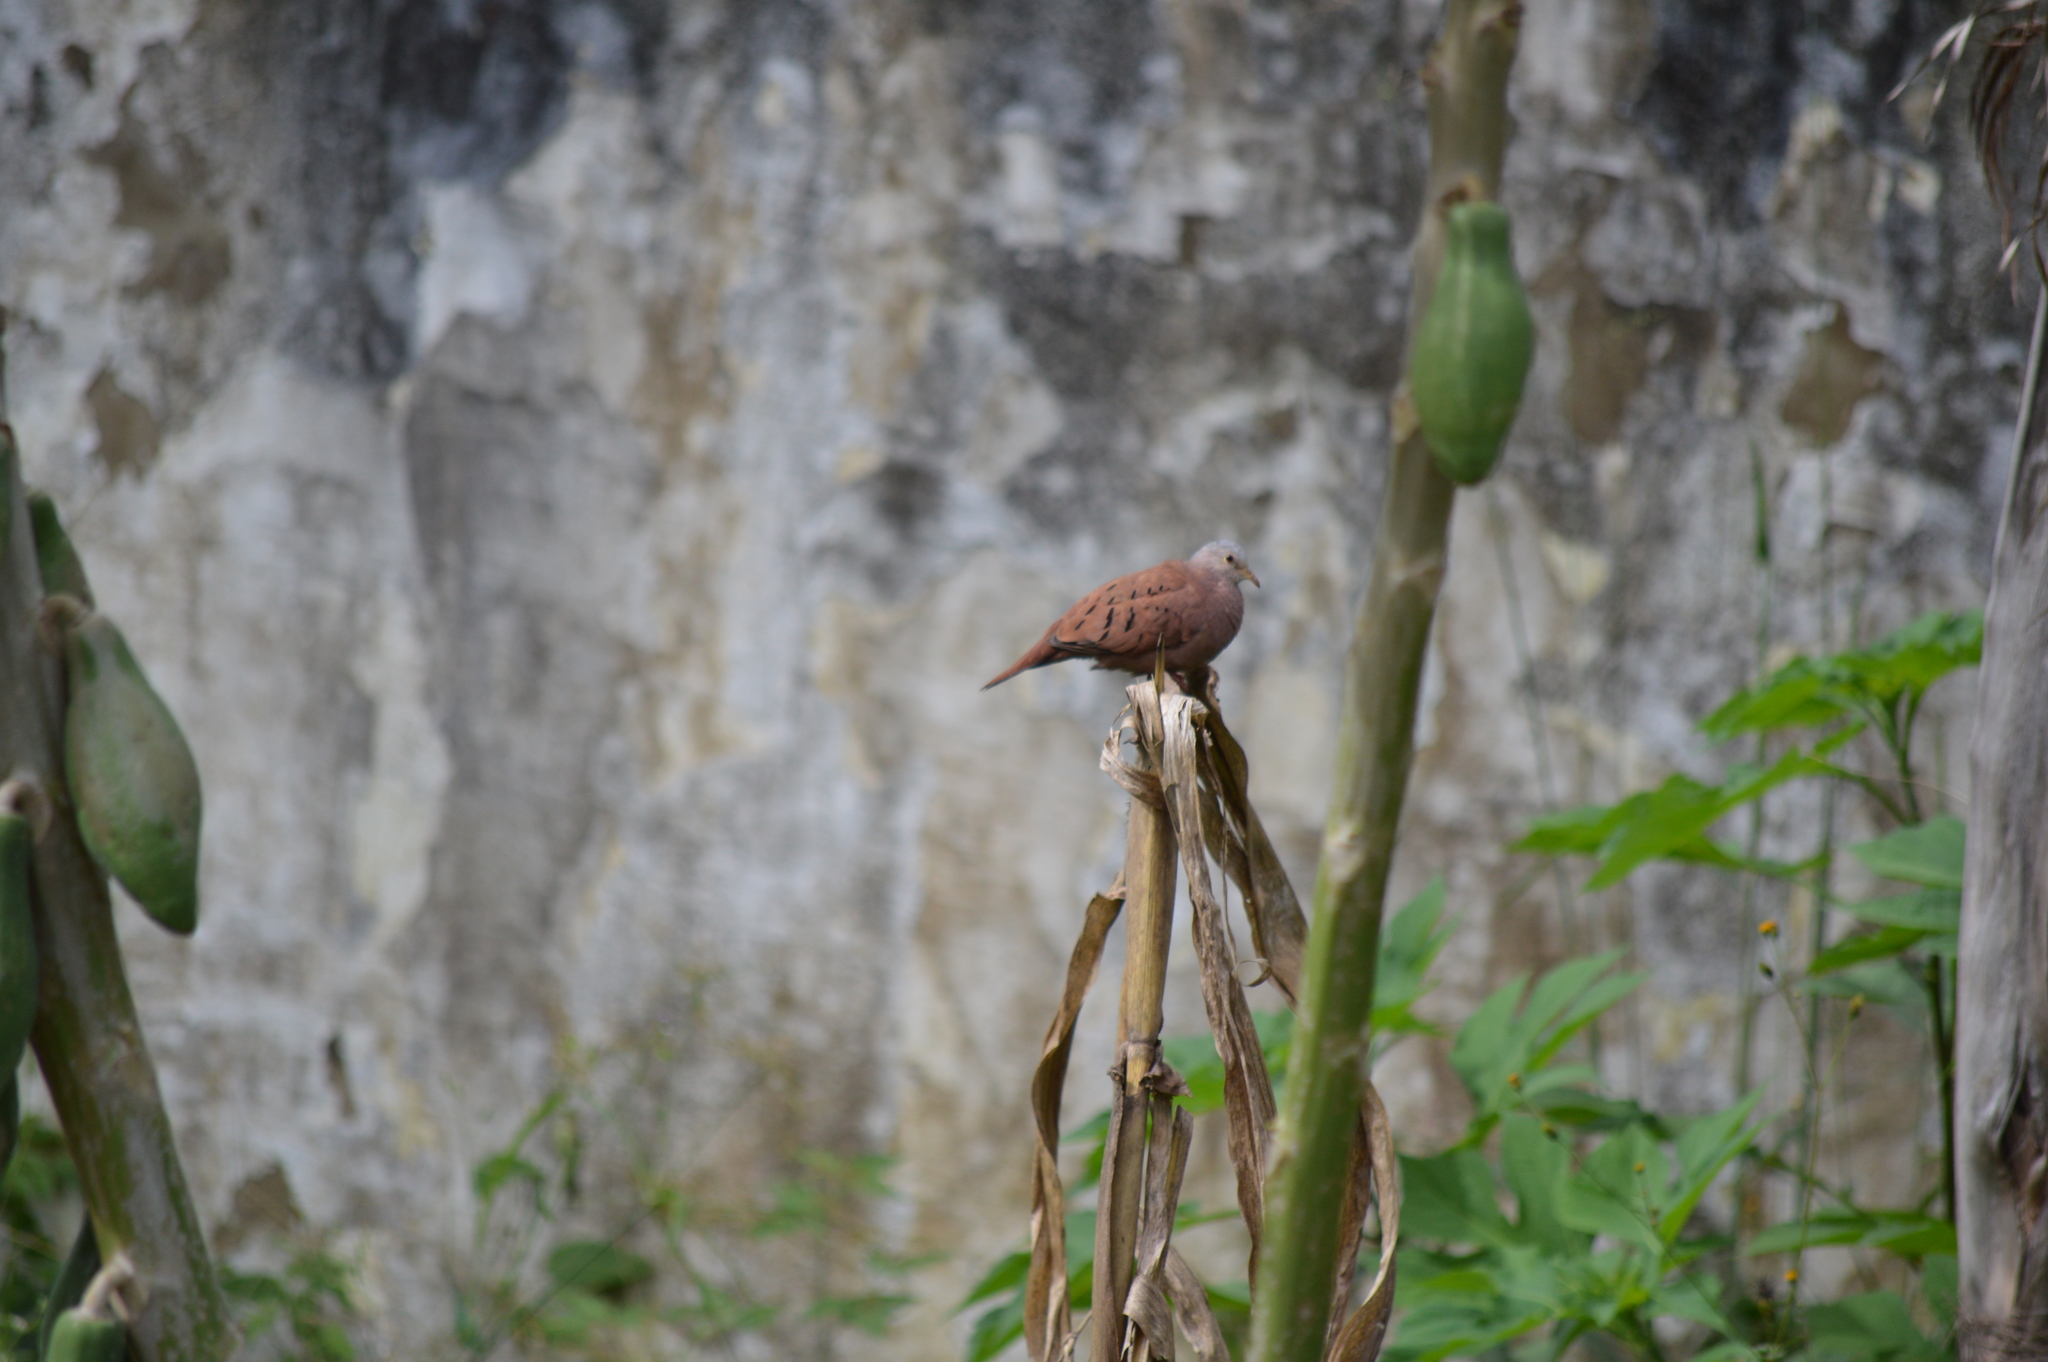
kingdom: Animalia
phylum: Chordata
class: Aves
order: Columbiformes
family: Columbidae
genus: Columbina
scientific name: Columbina talpacoti
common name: Ruddy ground dove
